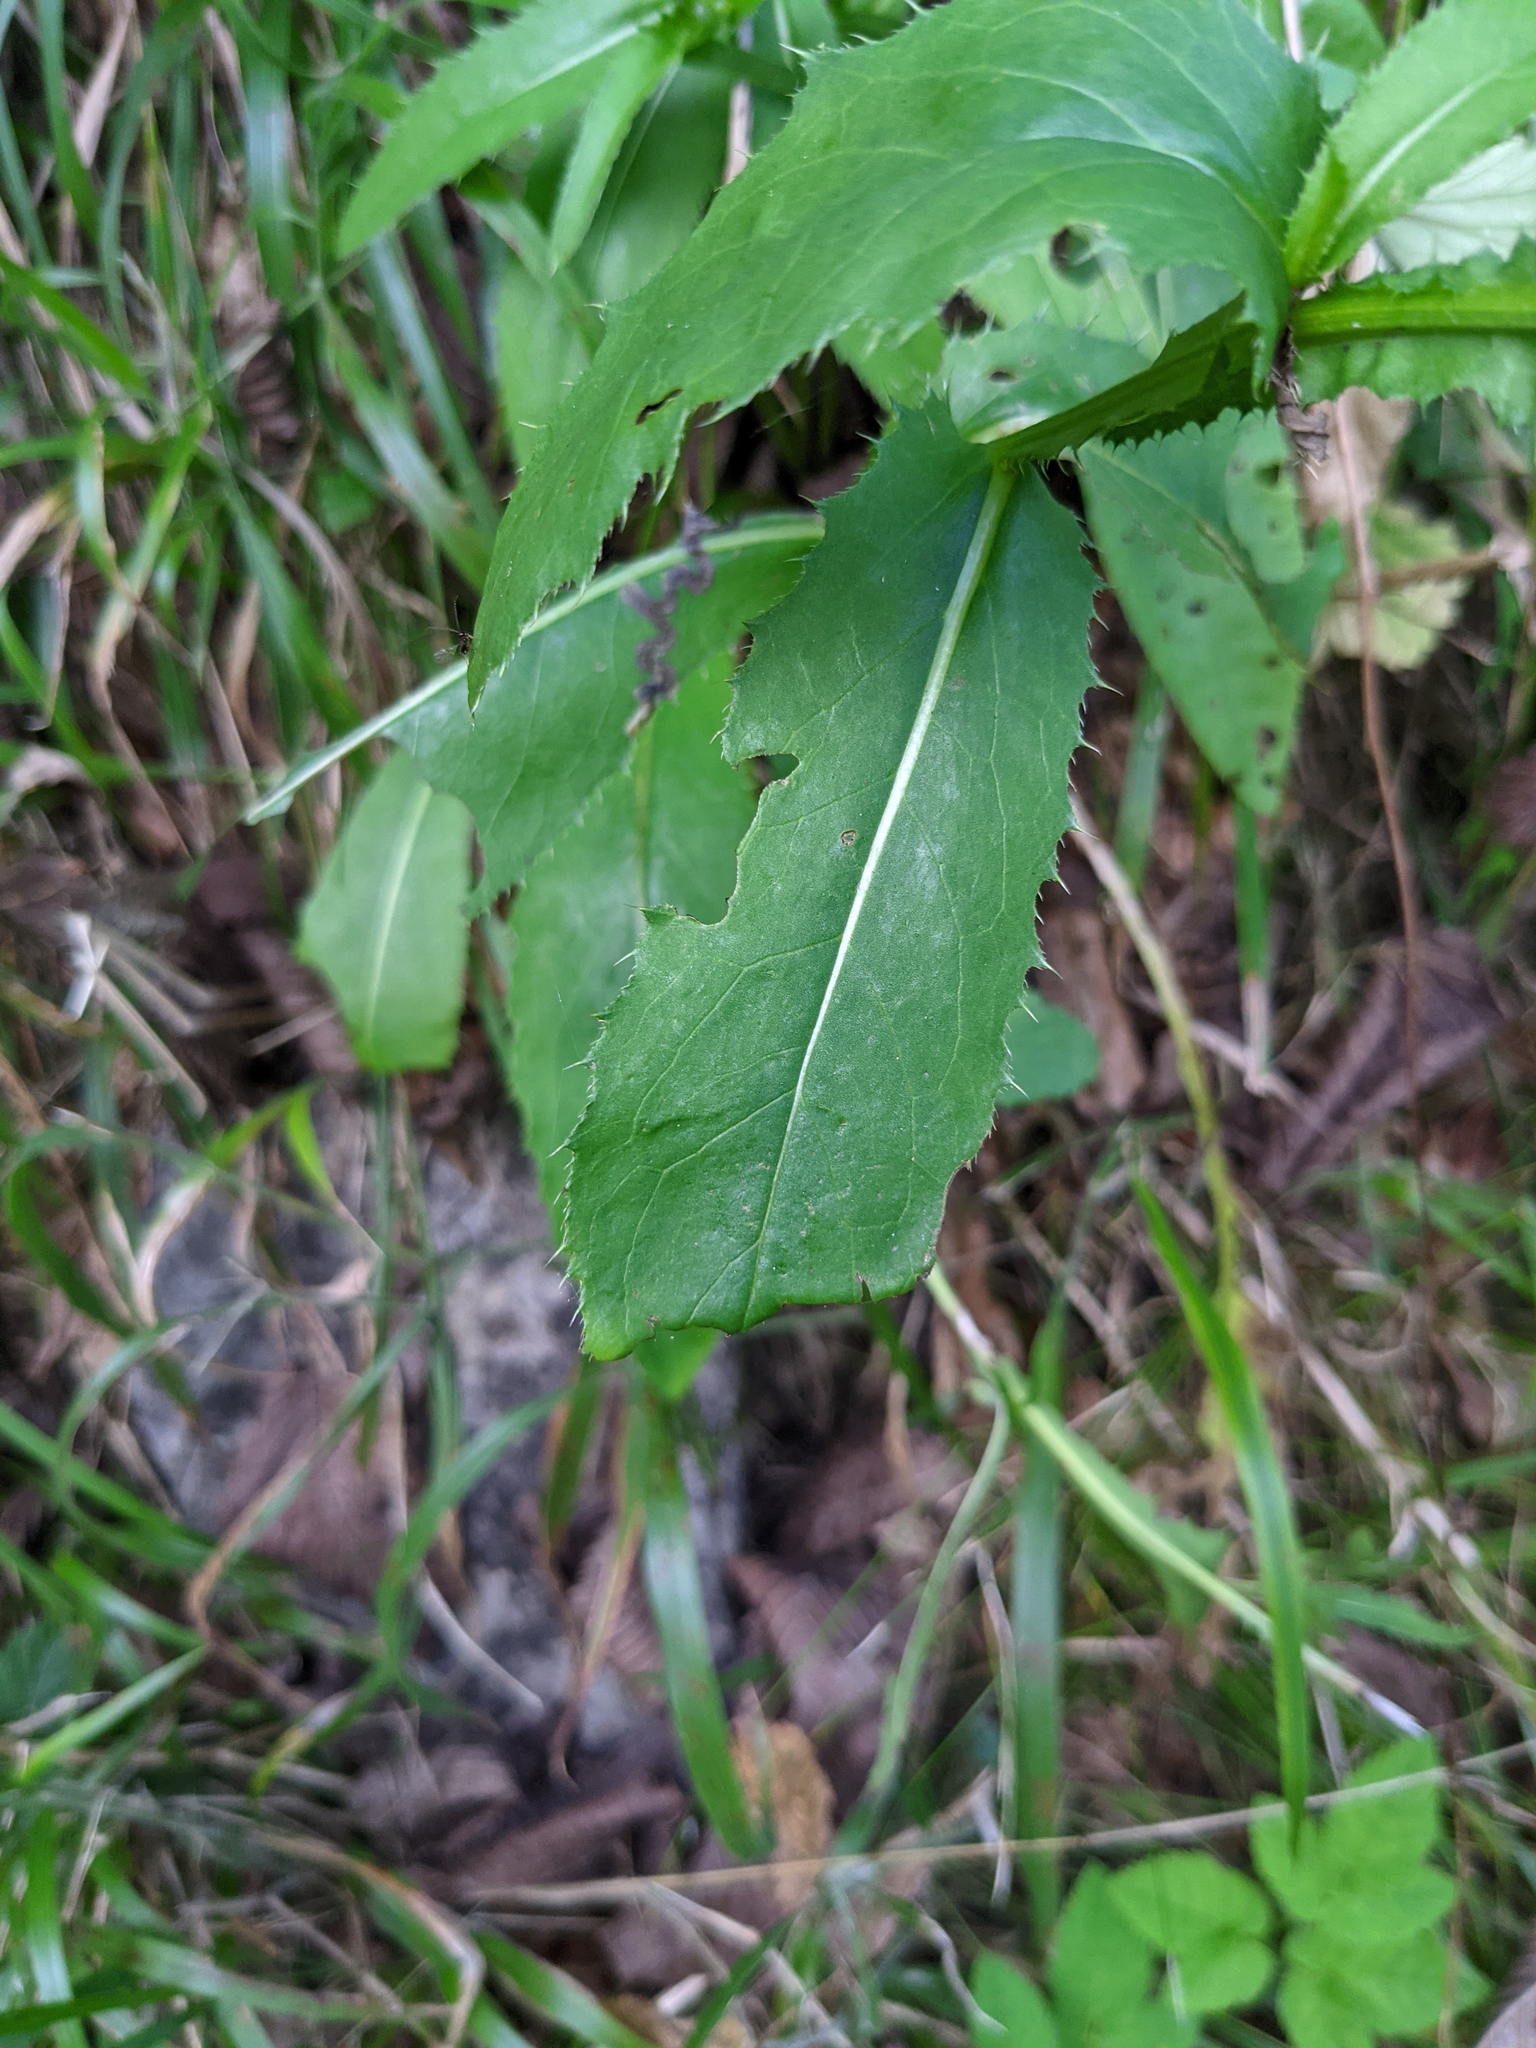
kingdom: Plantae
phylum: Tracheophyta
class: Magnoliopsida
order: Asterales
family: Asteraceae
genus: Carduus
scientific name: Carduus defloratus
